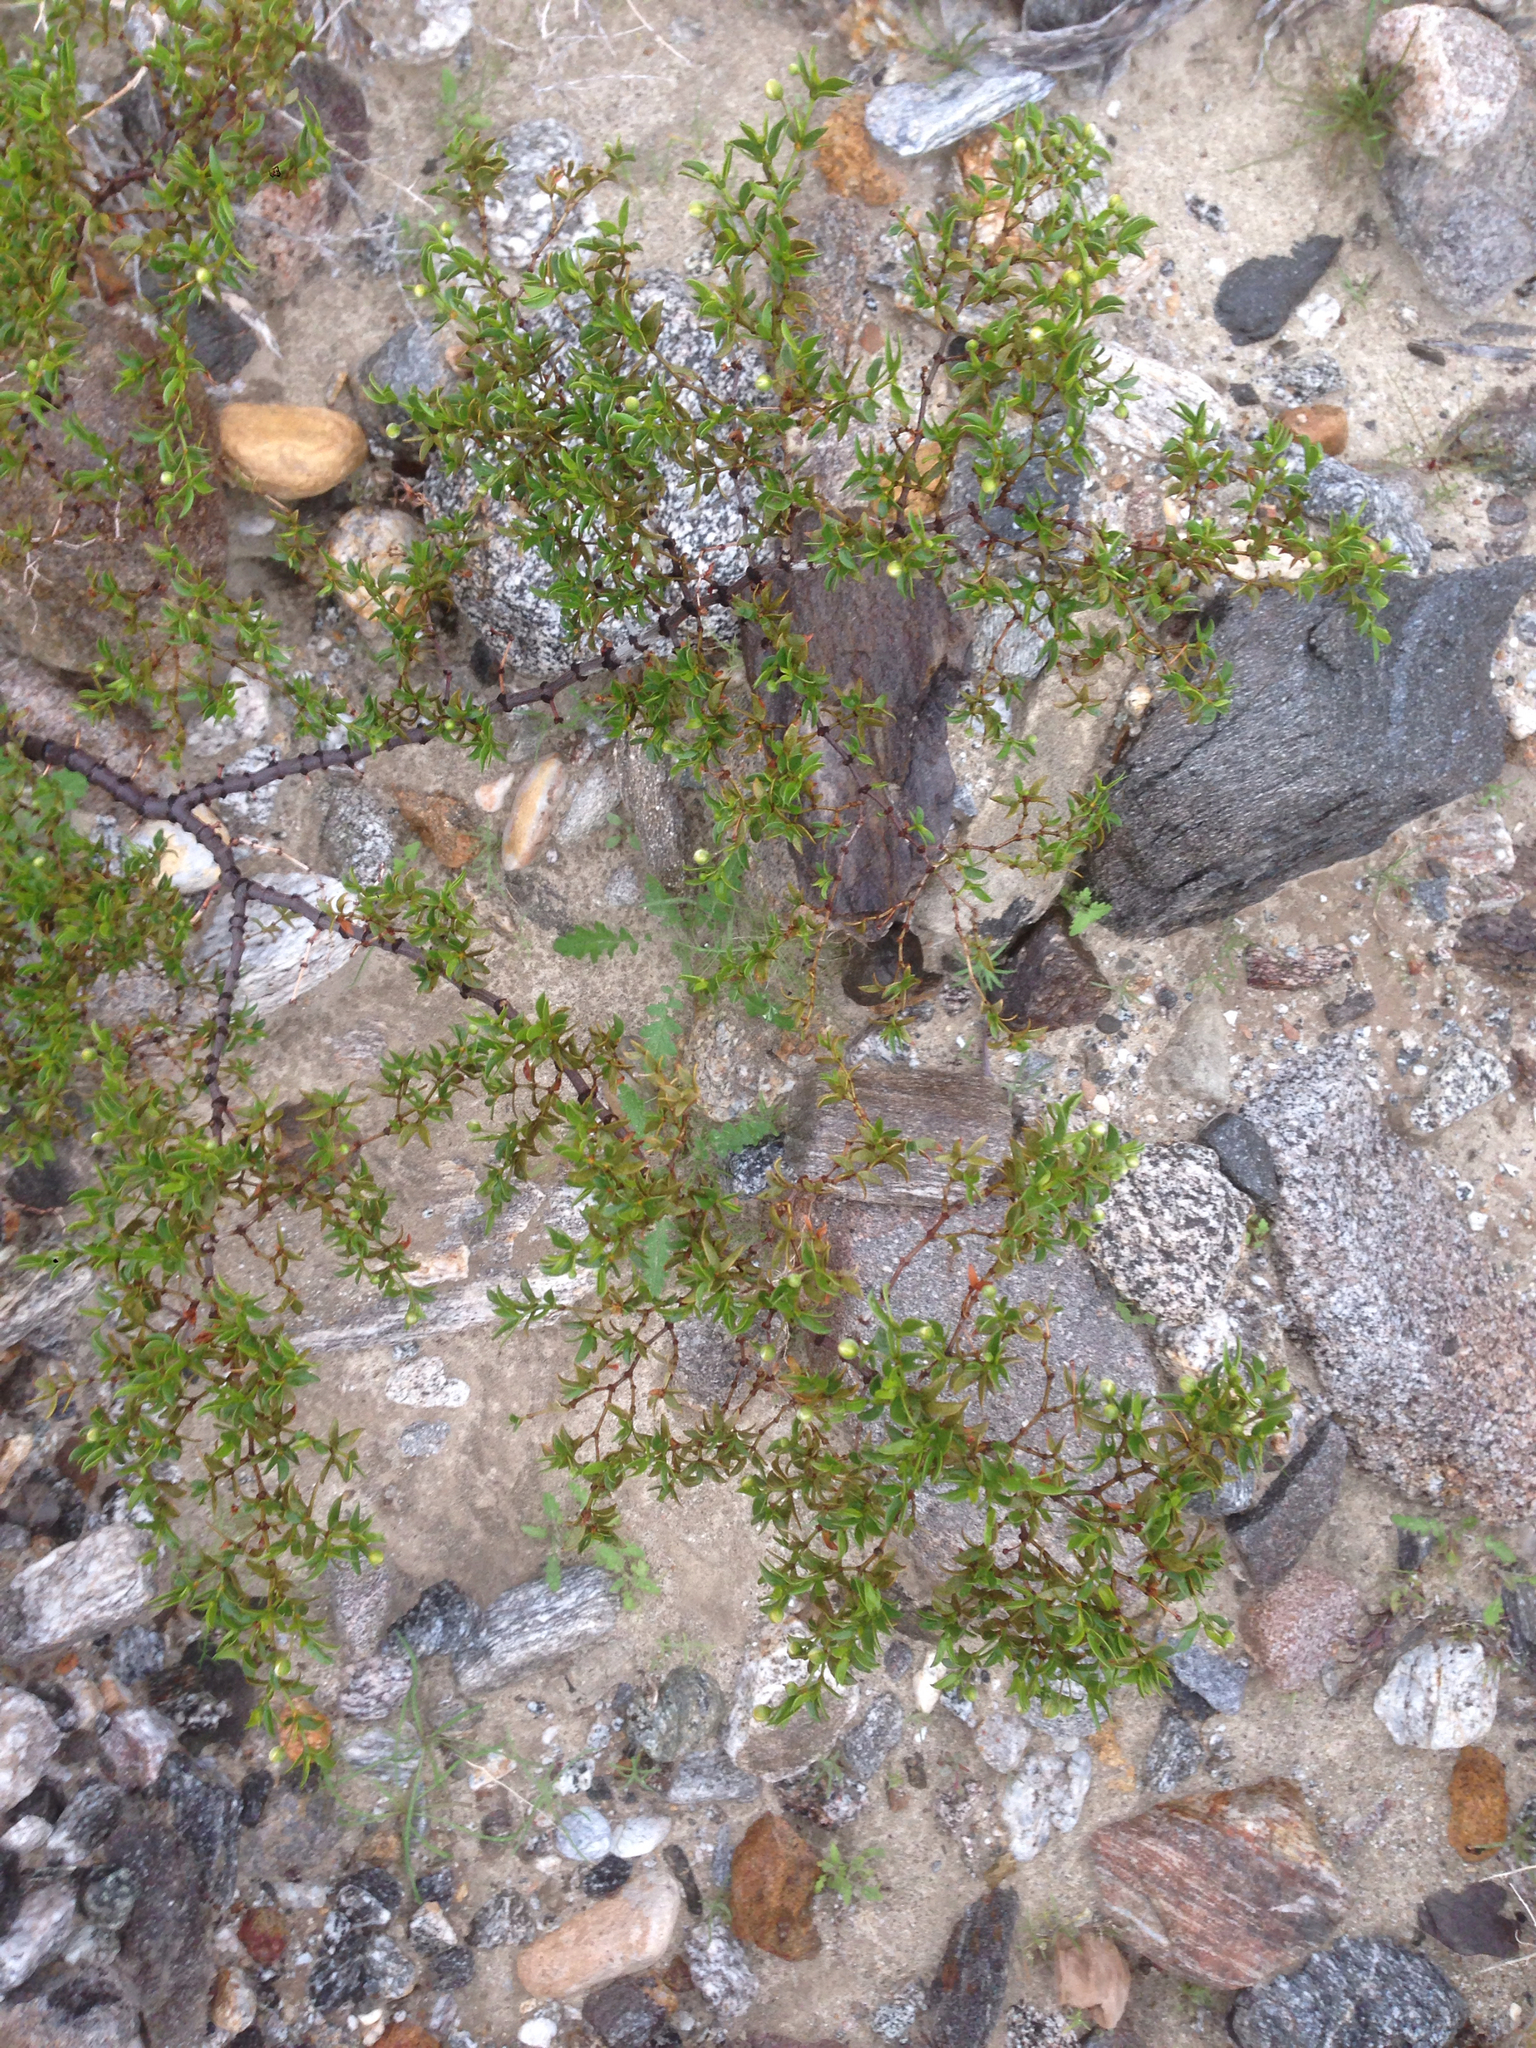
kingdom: Plantae
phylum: Tracheophyta
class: Magnoliopsida
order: Zygophyllales
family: Zygophyllaceae
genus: Larrea
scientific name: Larrea tridentata
